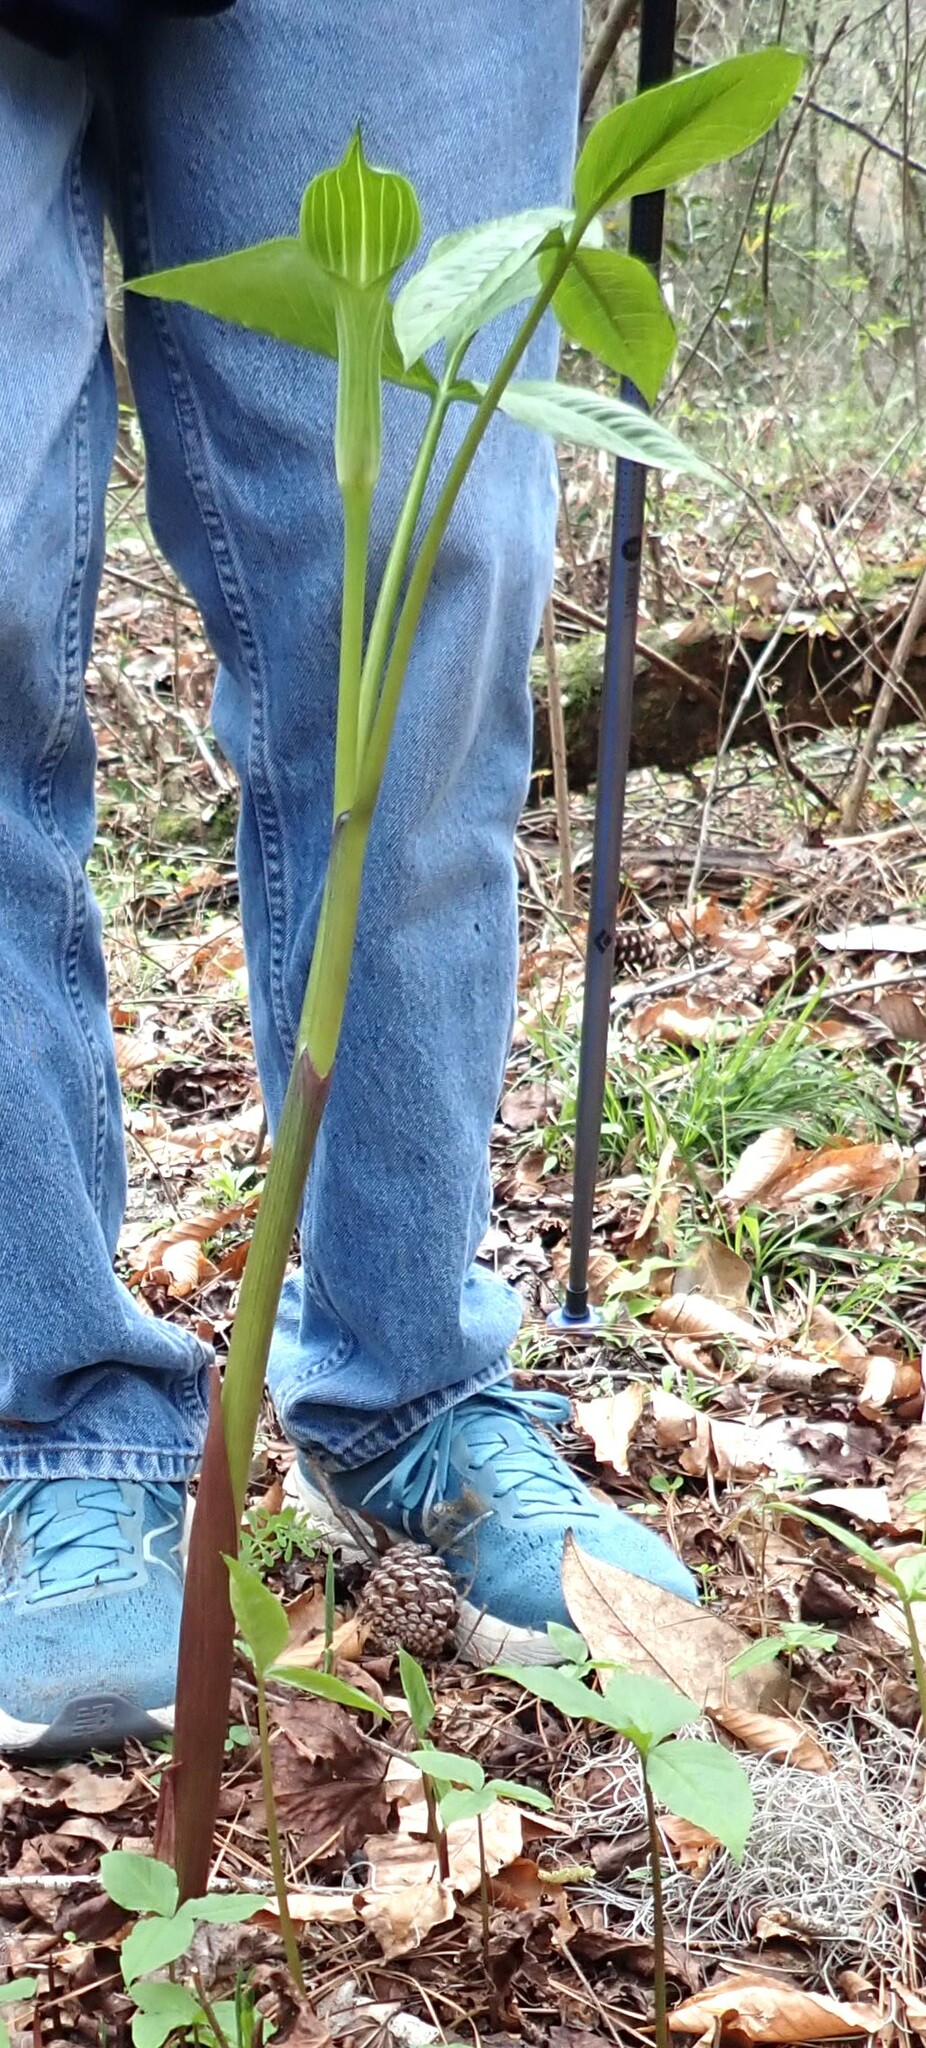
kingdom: Plantae
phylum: Tracheophyta
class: Liliopsida
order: Alismatales
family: Araceae
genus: Arisaema
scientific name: Arisaema acuminatum
